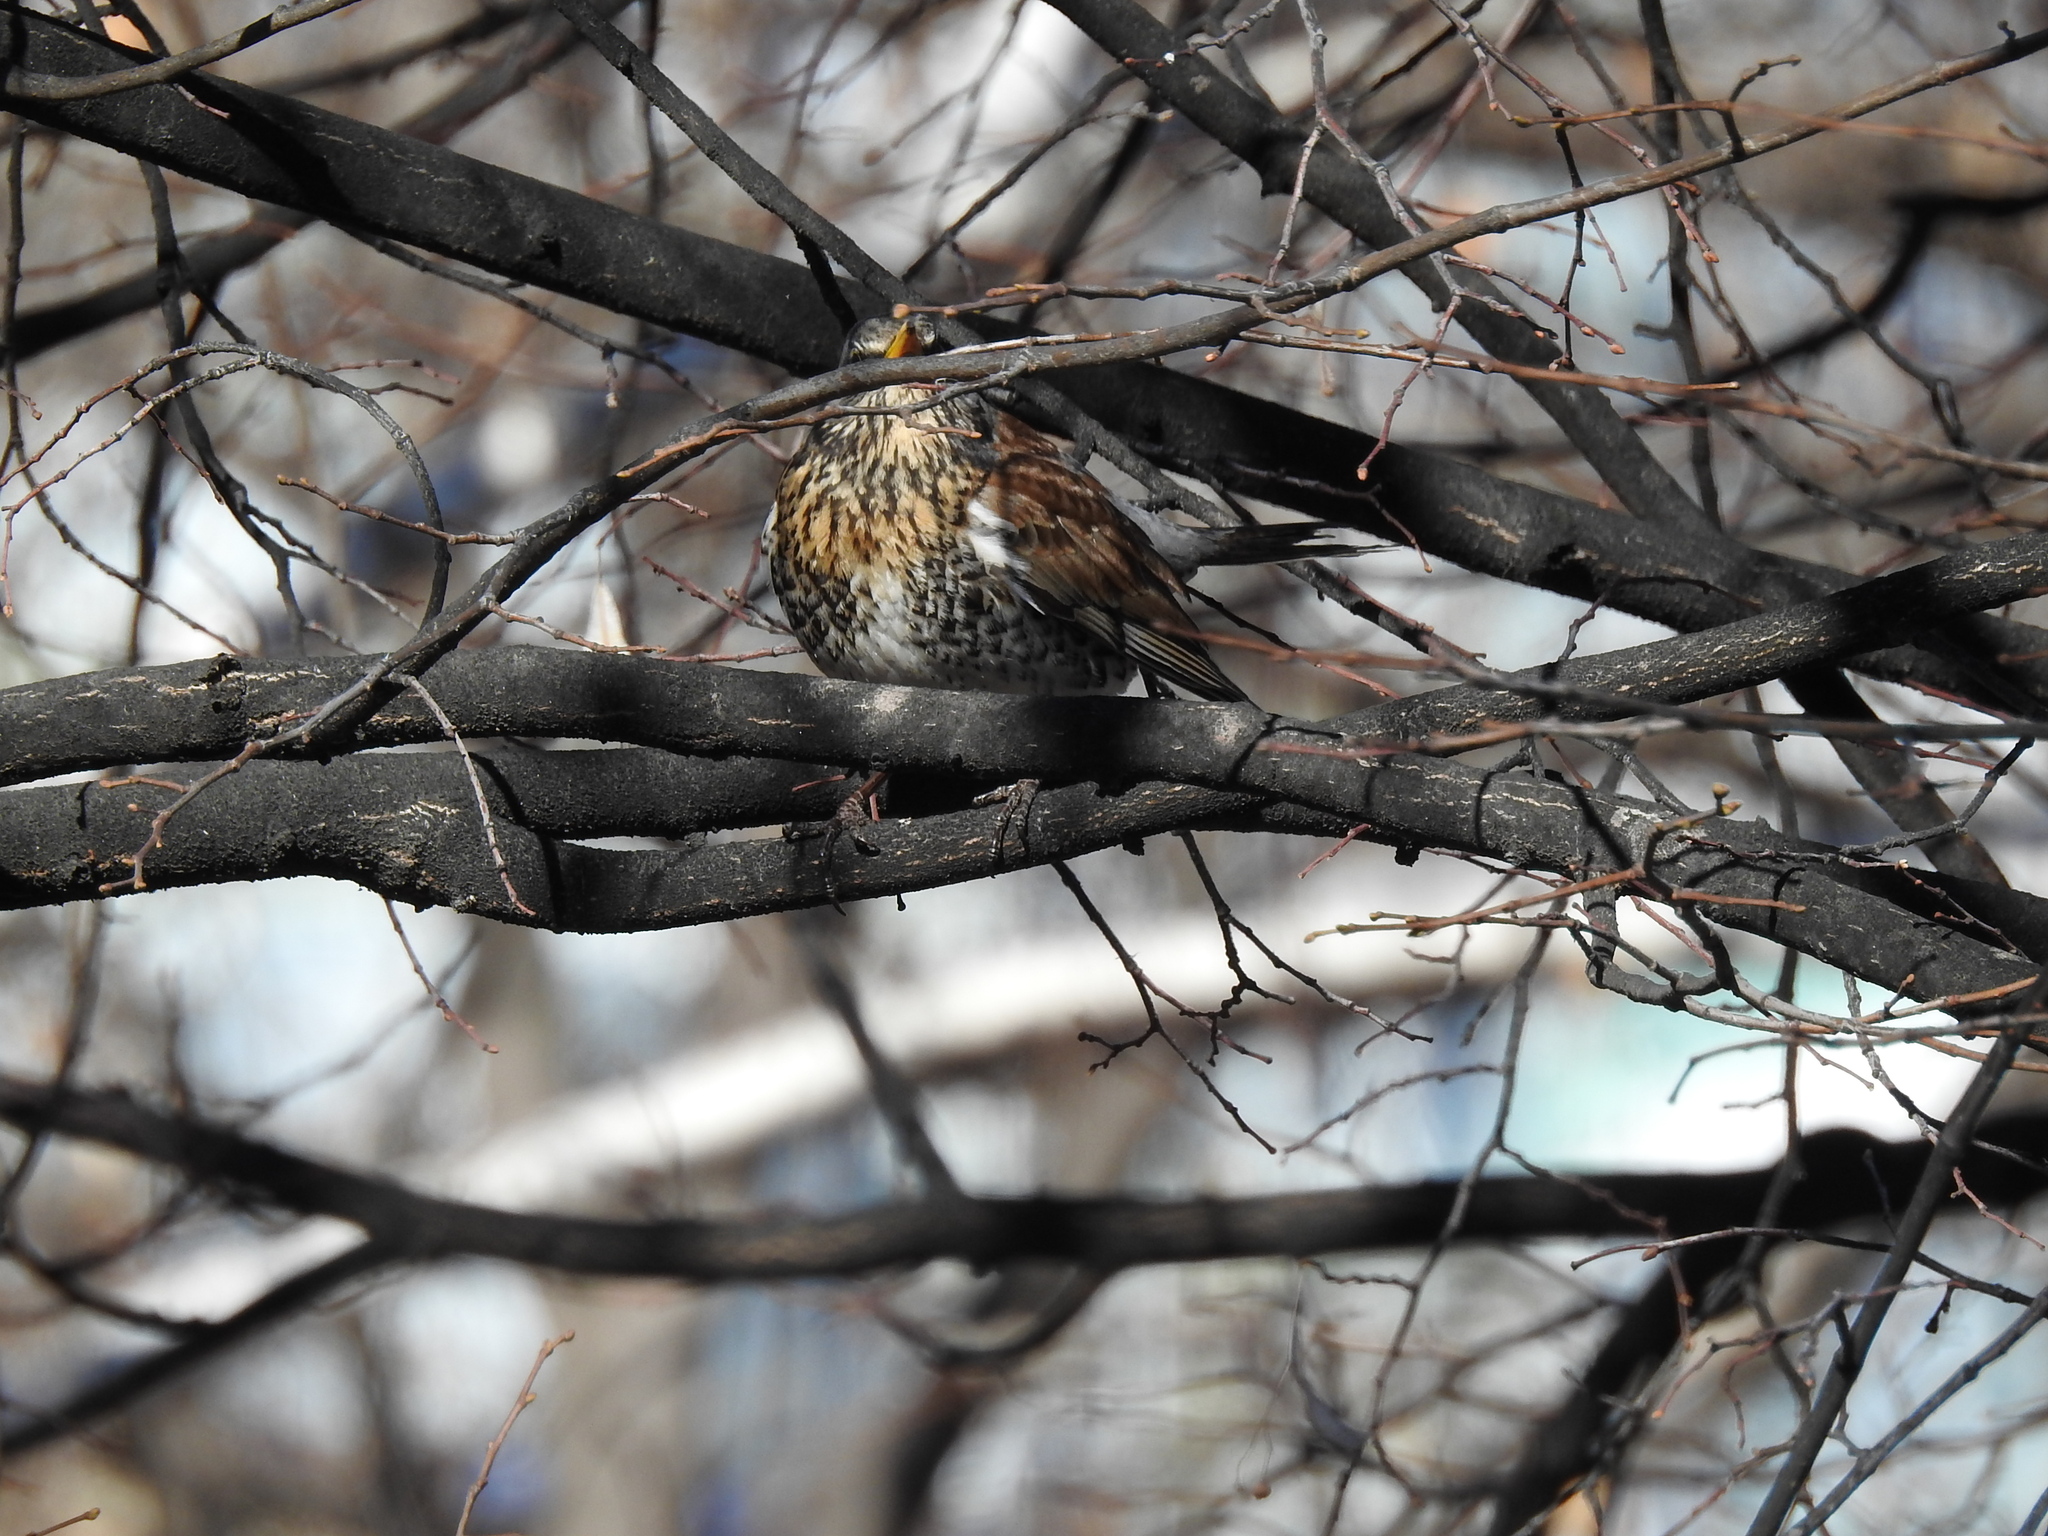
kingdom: Animalia
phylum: Chordata
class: Aves
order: Passeriformes
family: Turdidae
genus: Turdus
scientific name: Turdus pilaris
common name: Fieldfare
